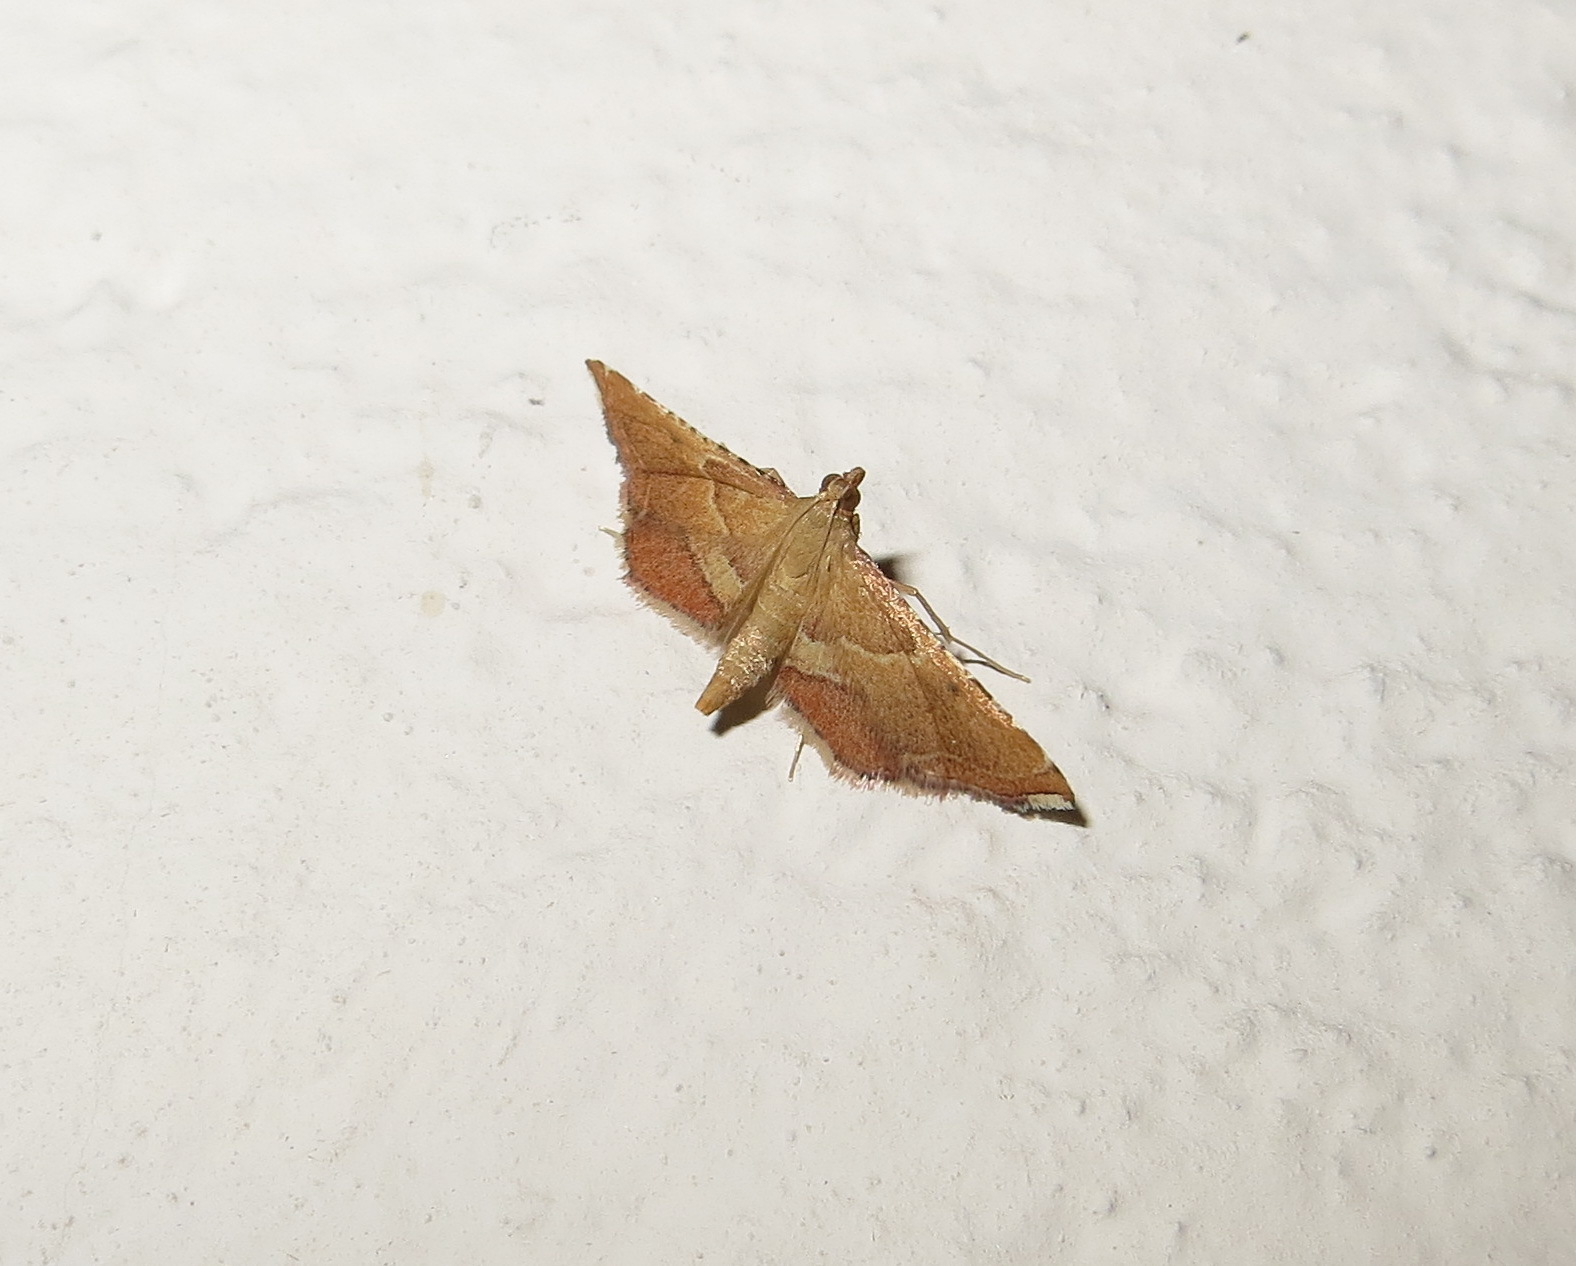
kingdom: Animalia
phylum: Arthropoda
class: Insecta
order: Lepidoptera
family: Pyralidae
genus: Endotricha
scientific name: Endotricha flammealis
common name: Rosy tabby
